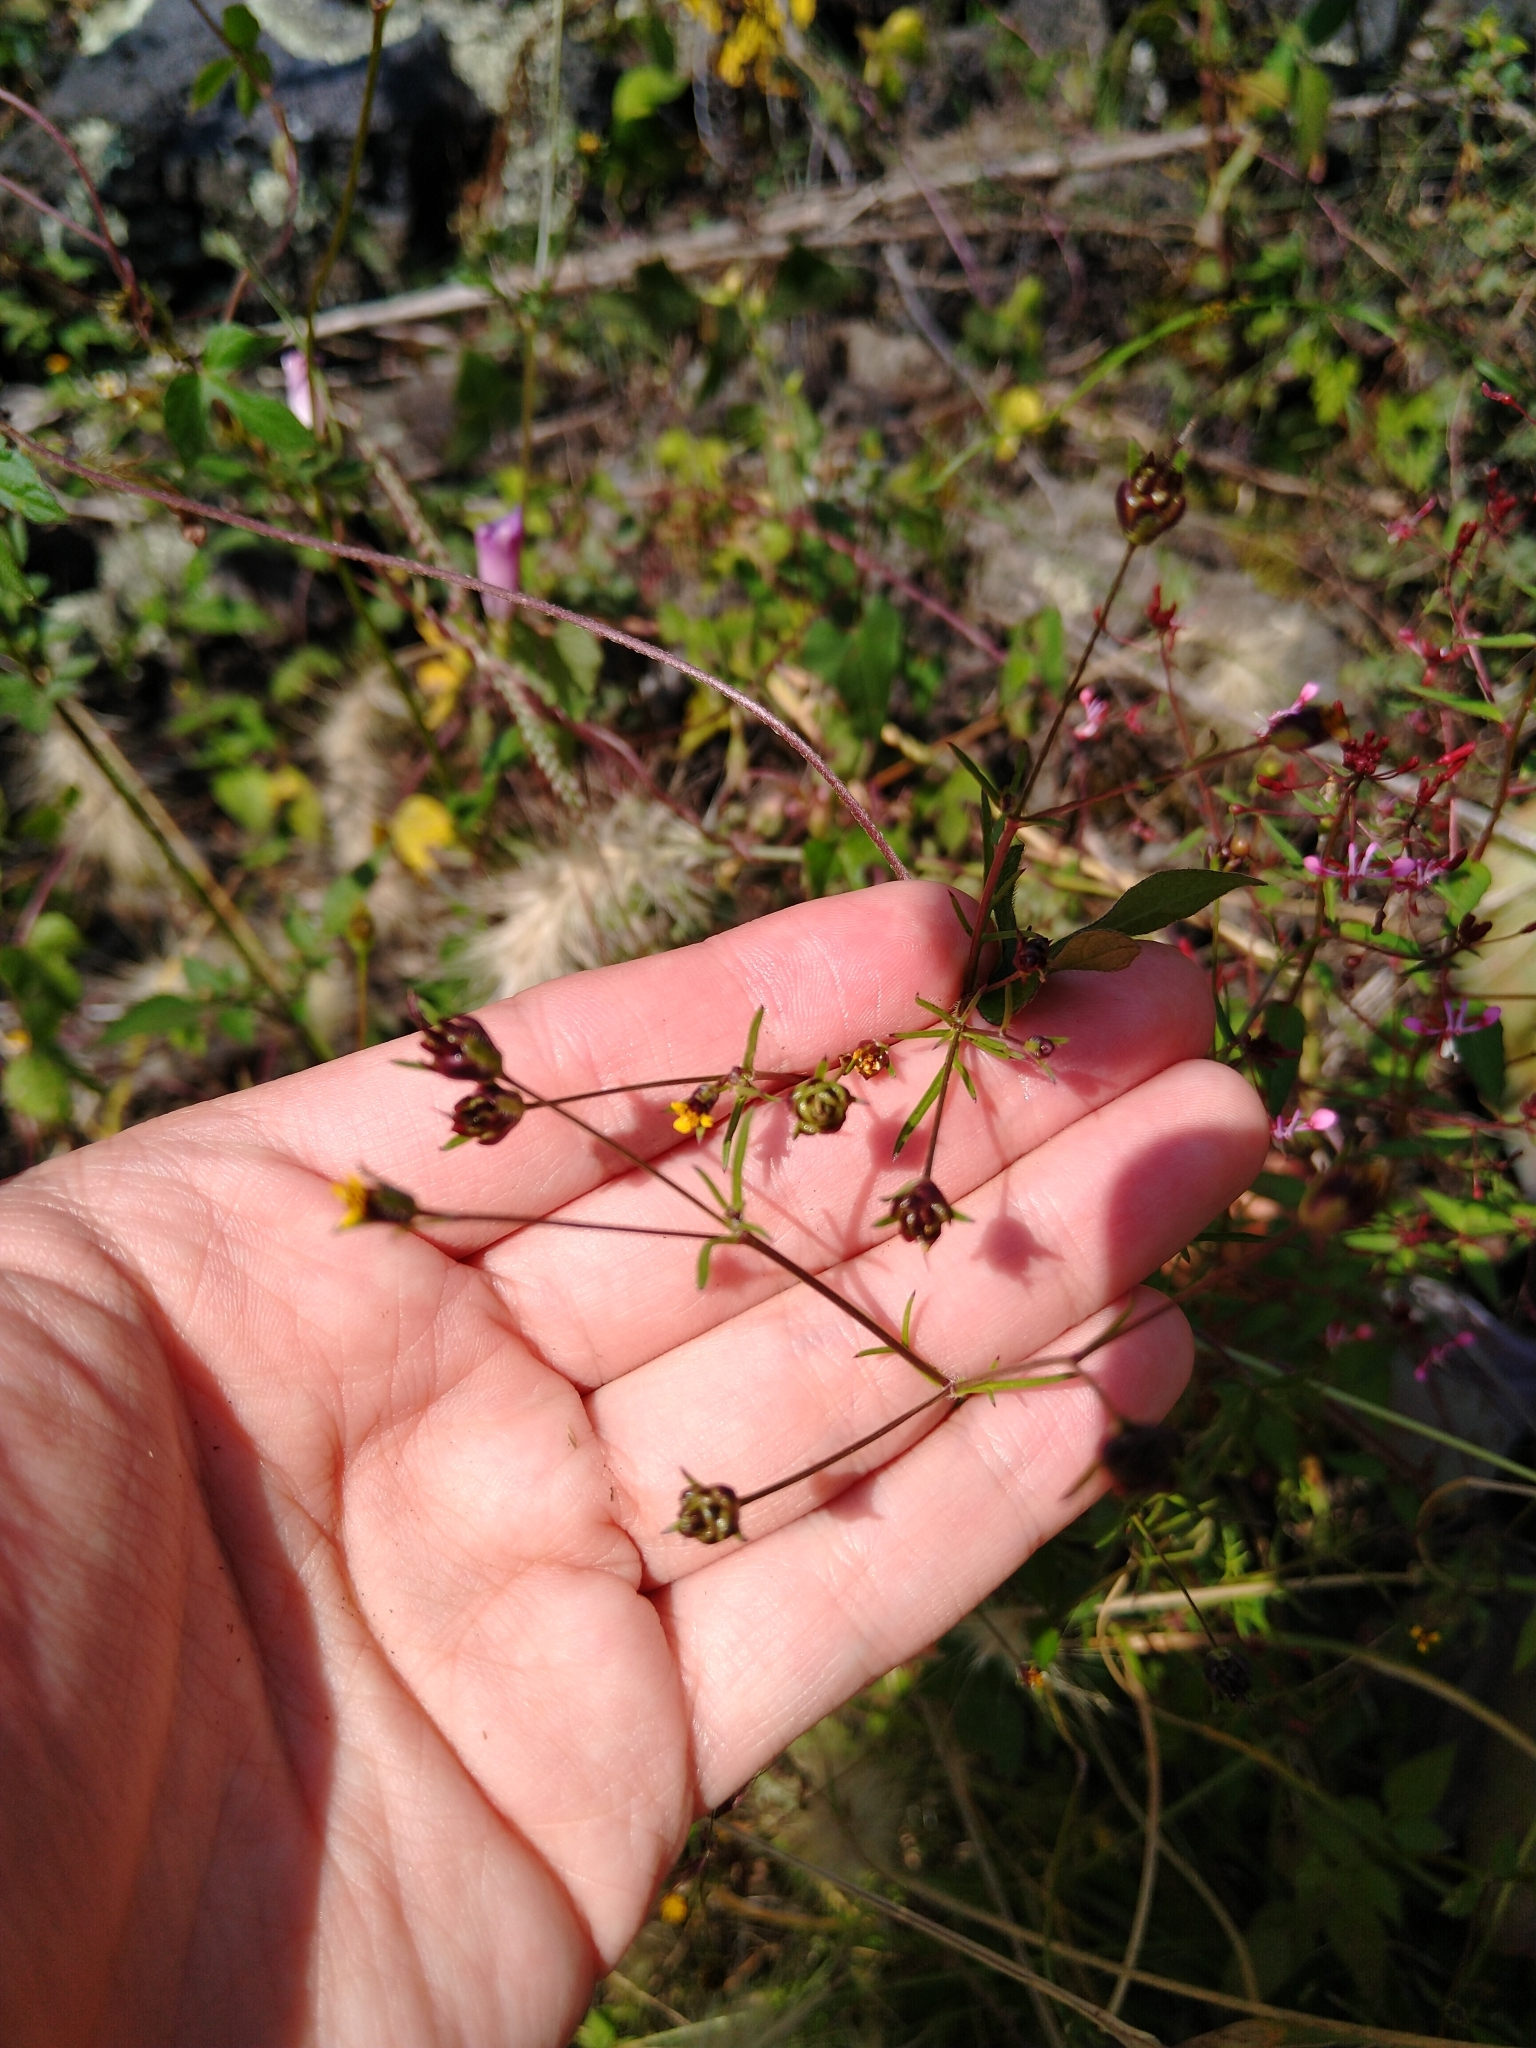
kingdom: Plantae
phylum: Tracheophyta
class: Magnoliopsida
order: Asterales
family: Asteraceae
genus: Heterosperma
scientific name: Heterosperma pinnatum
